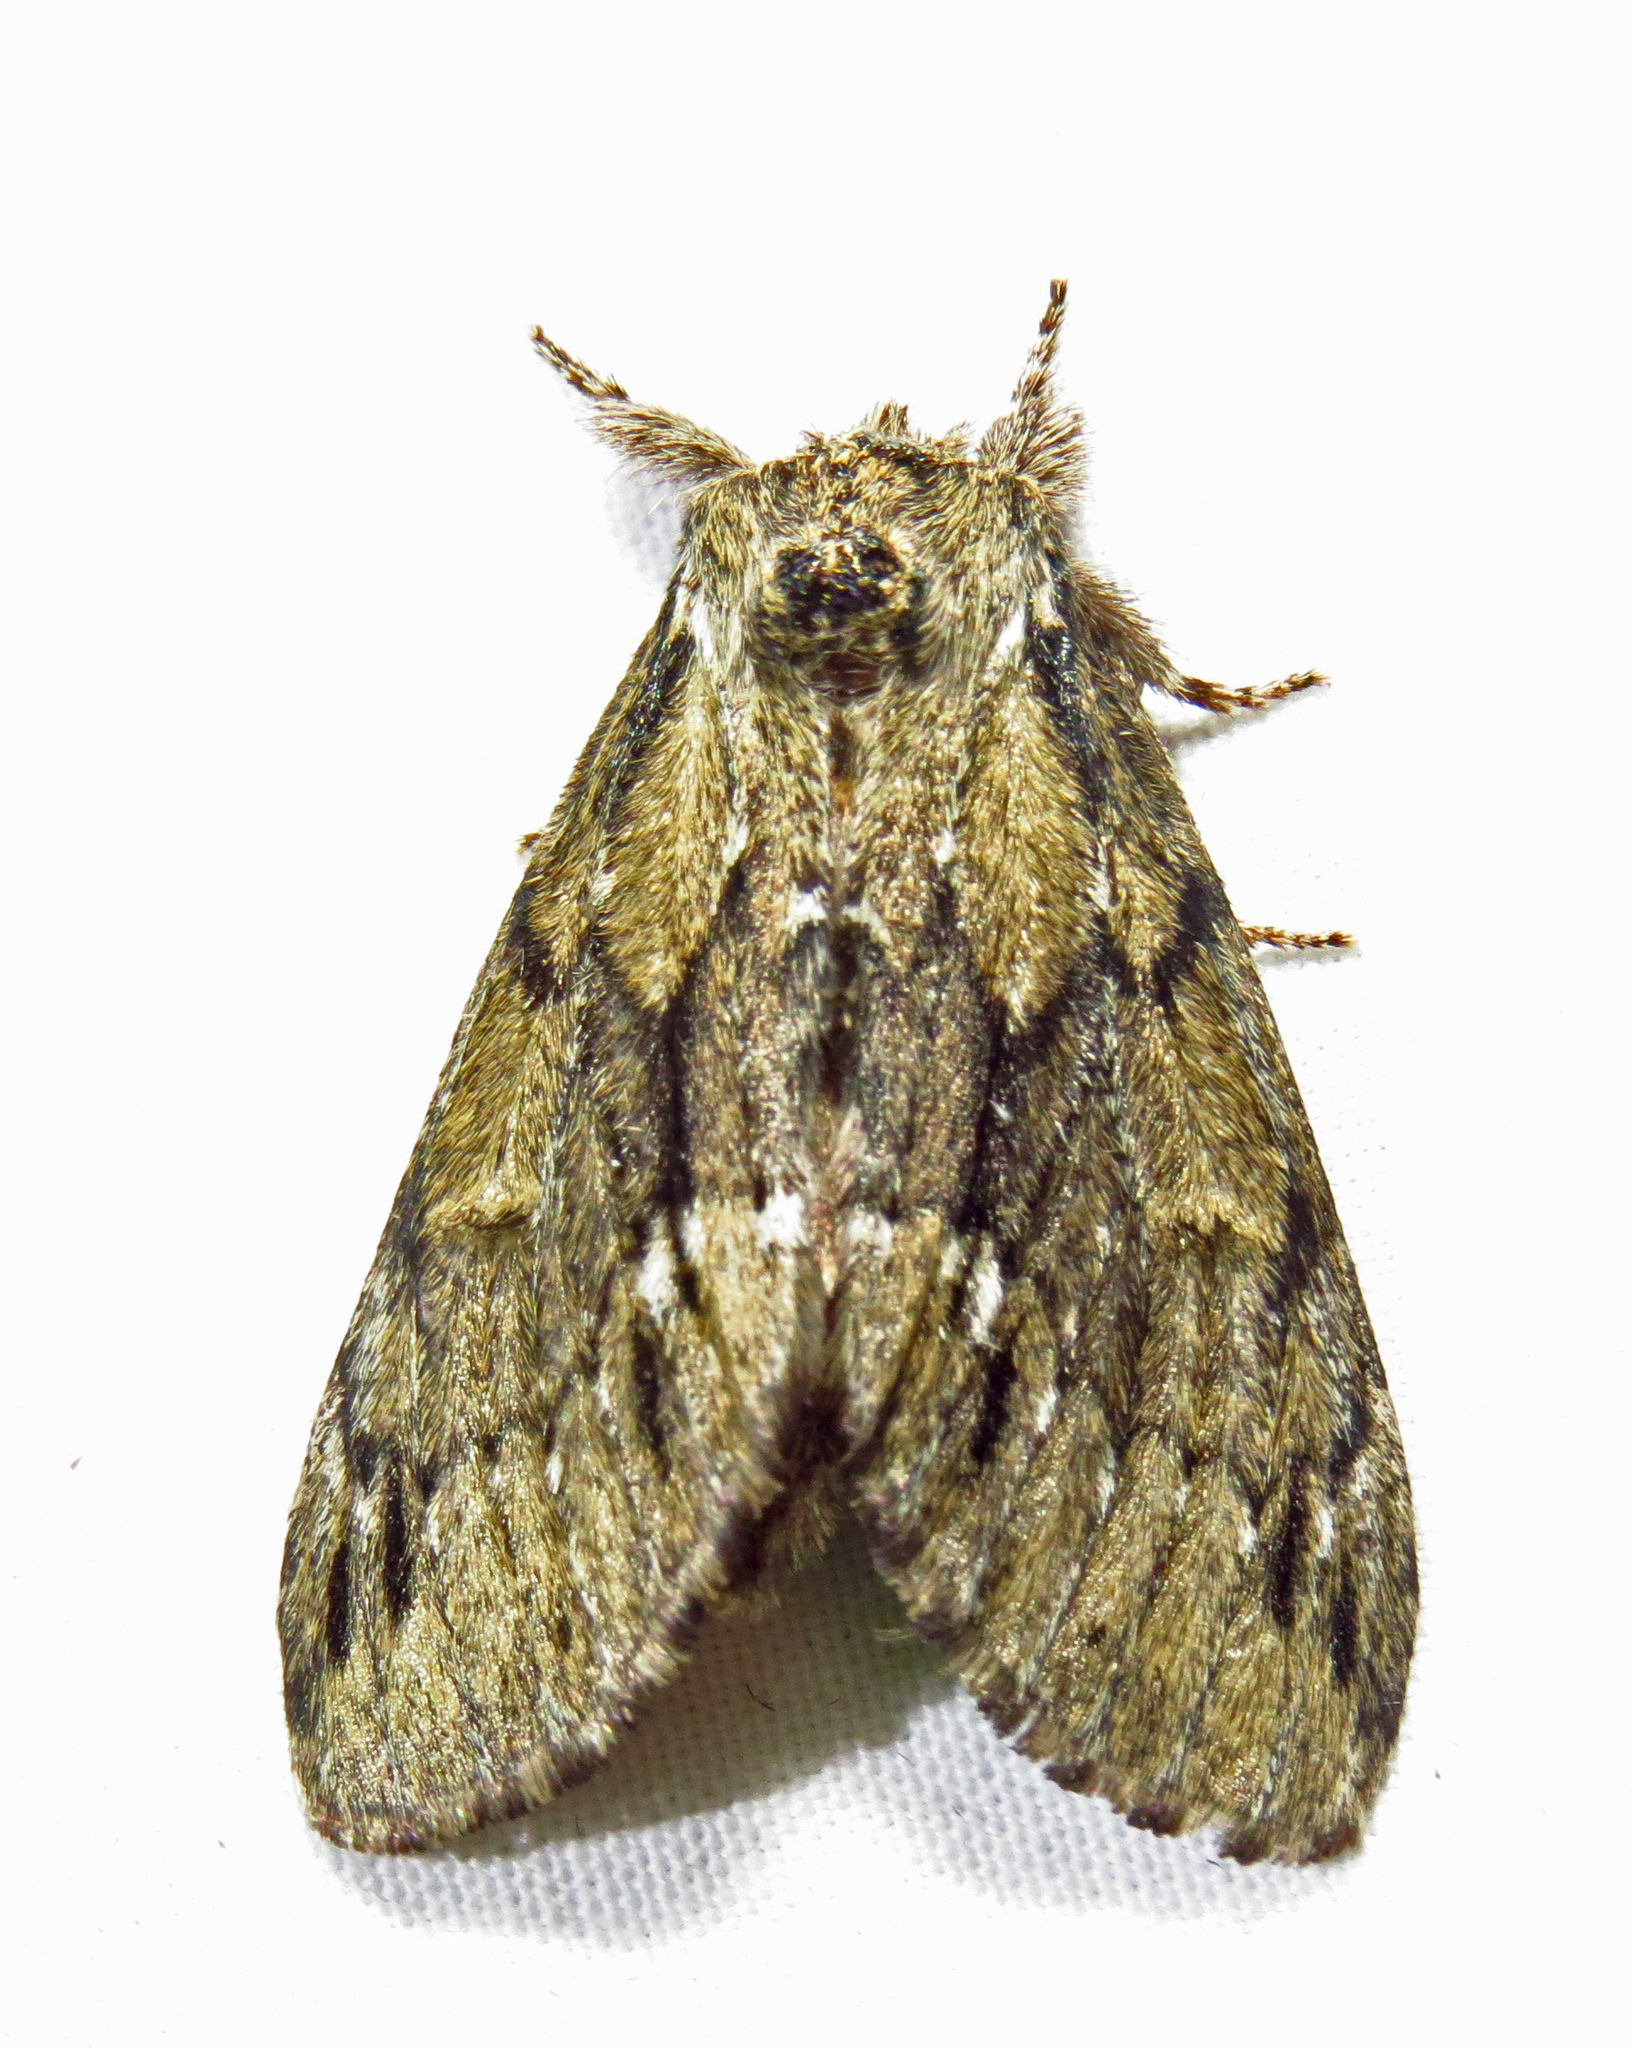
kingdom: Animalia
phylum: Arthropoda
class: Insecta
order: Lepidoptera
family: Notodontidae
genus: Paraeschra
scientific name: Paraeschra georgica
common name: Georgian prominent
